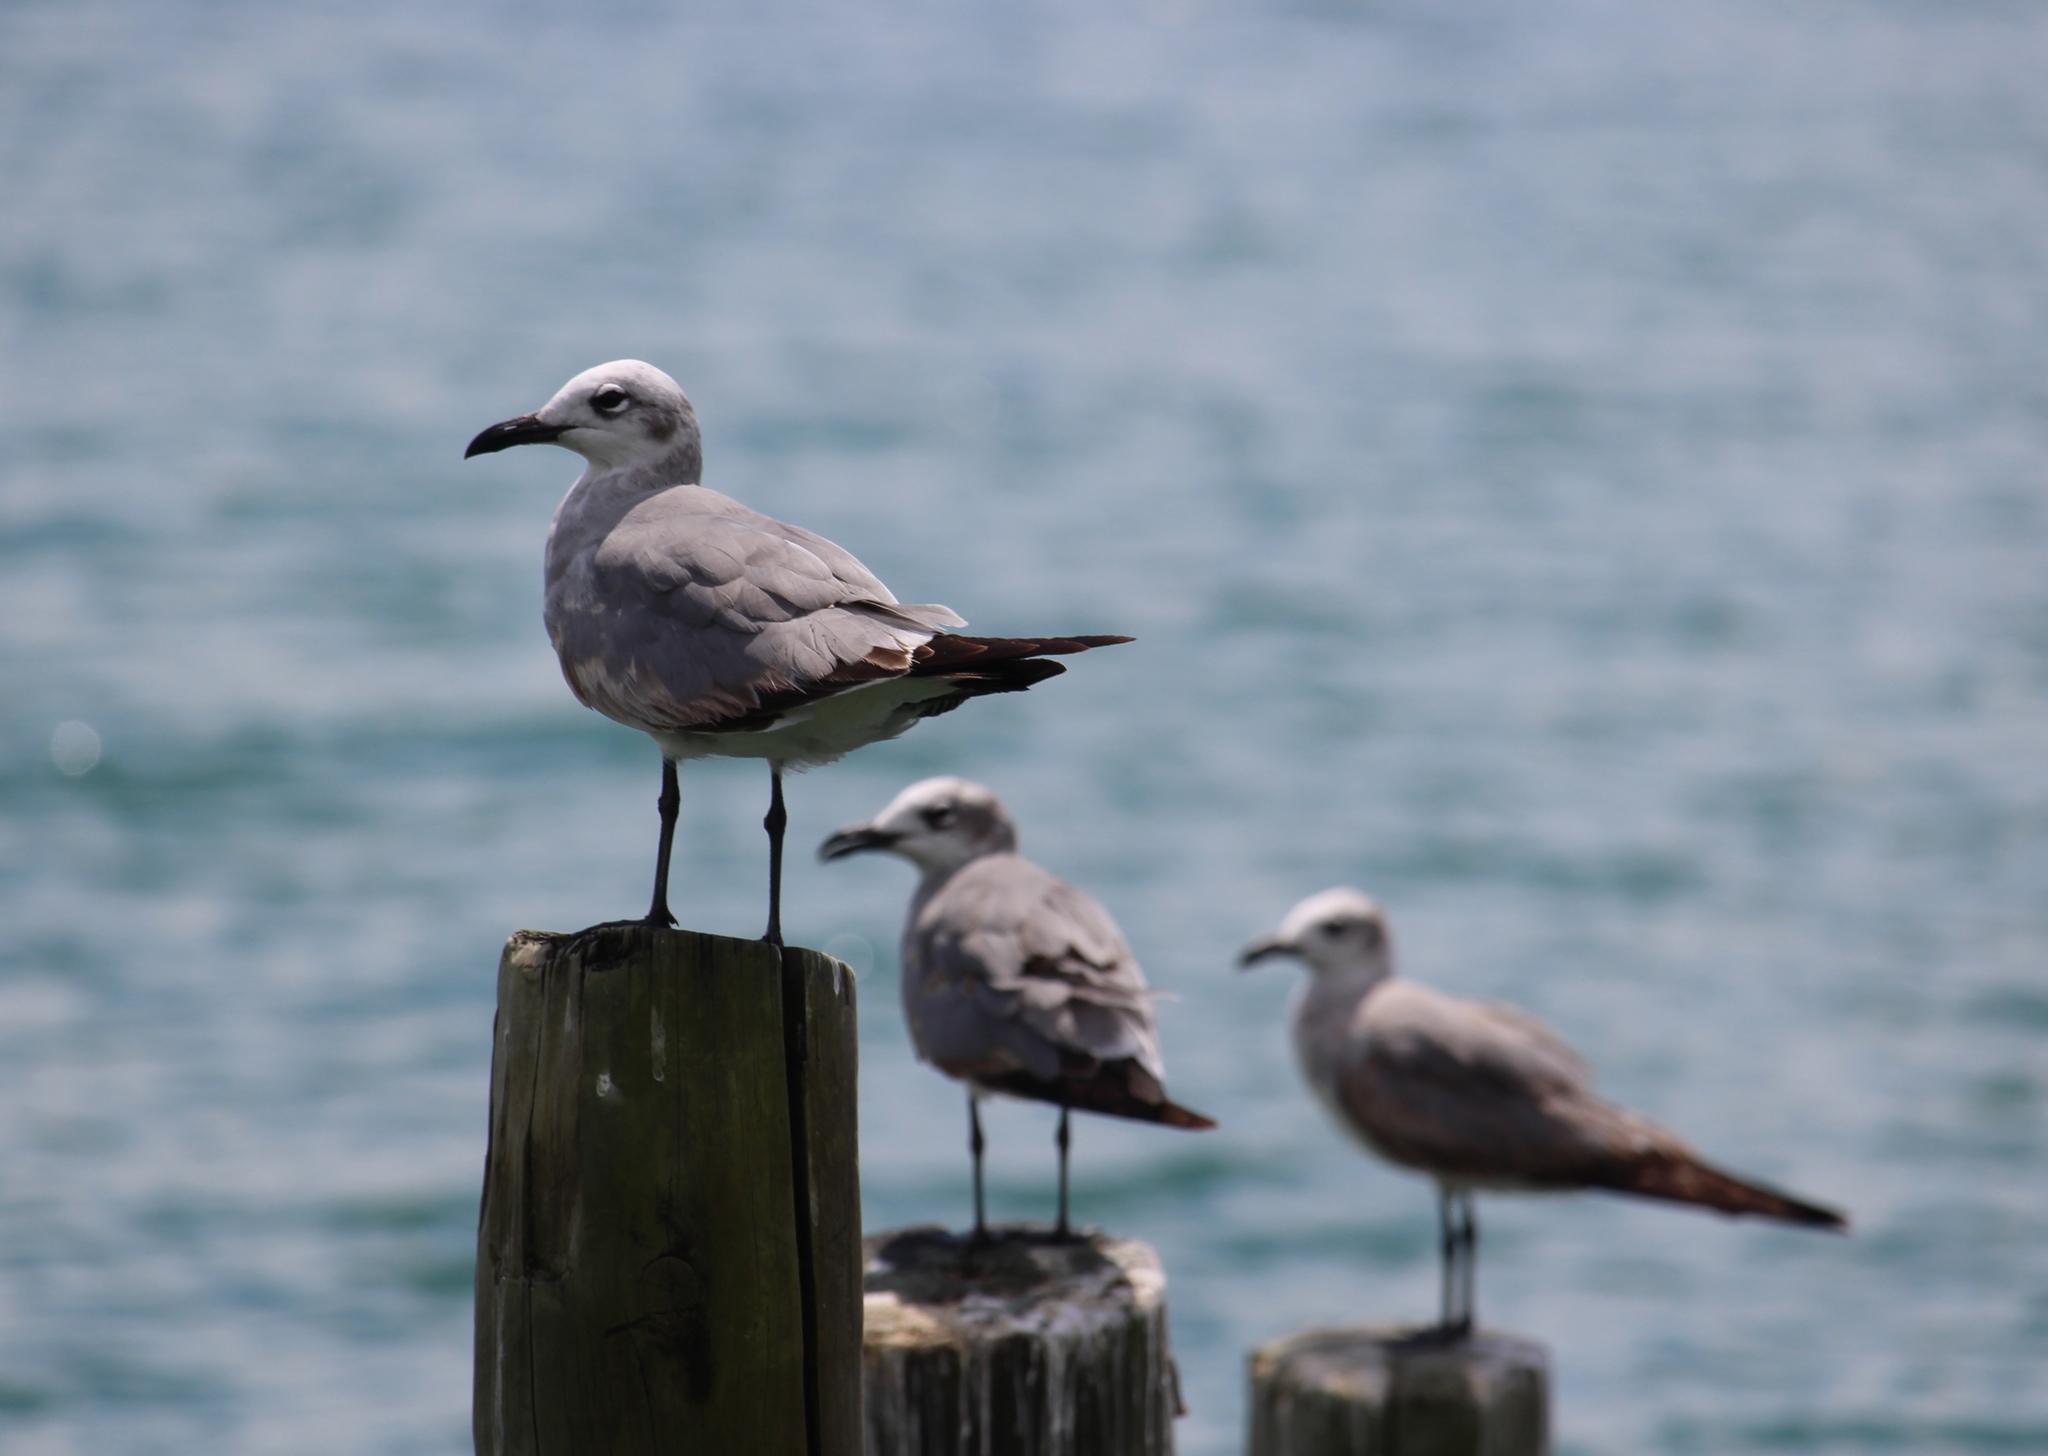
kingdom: Animalia
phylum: Chordata
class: Aves
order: Charadriiformes
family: Laridae
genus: Leucophaeus
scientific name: Leucophaeus atricilla
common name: Laughing gull
